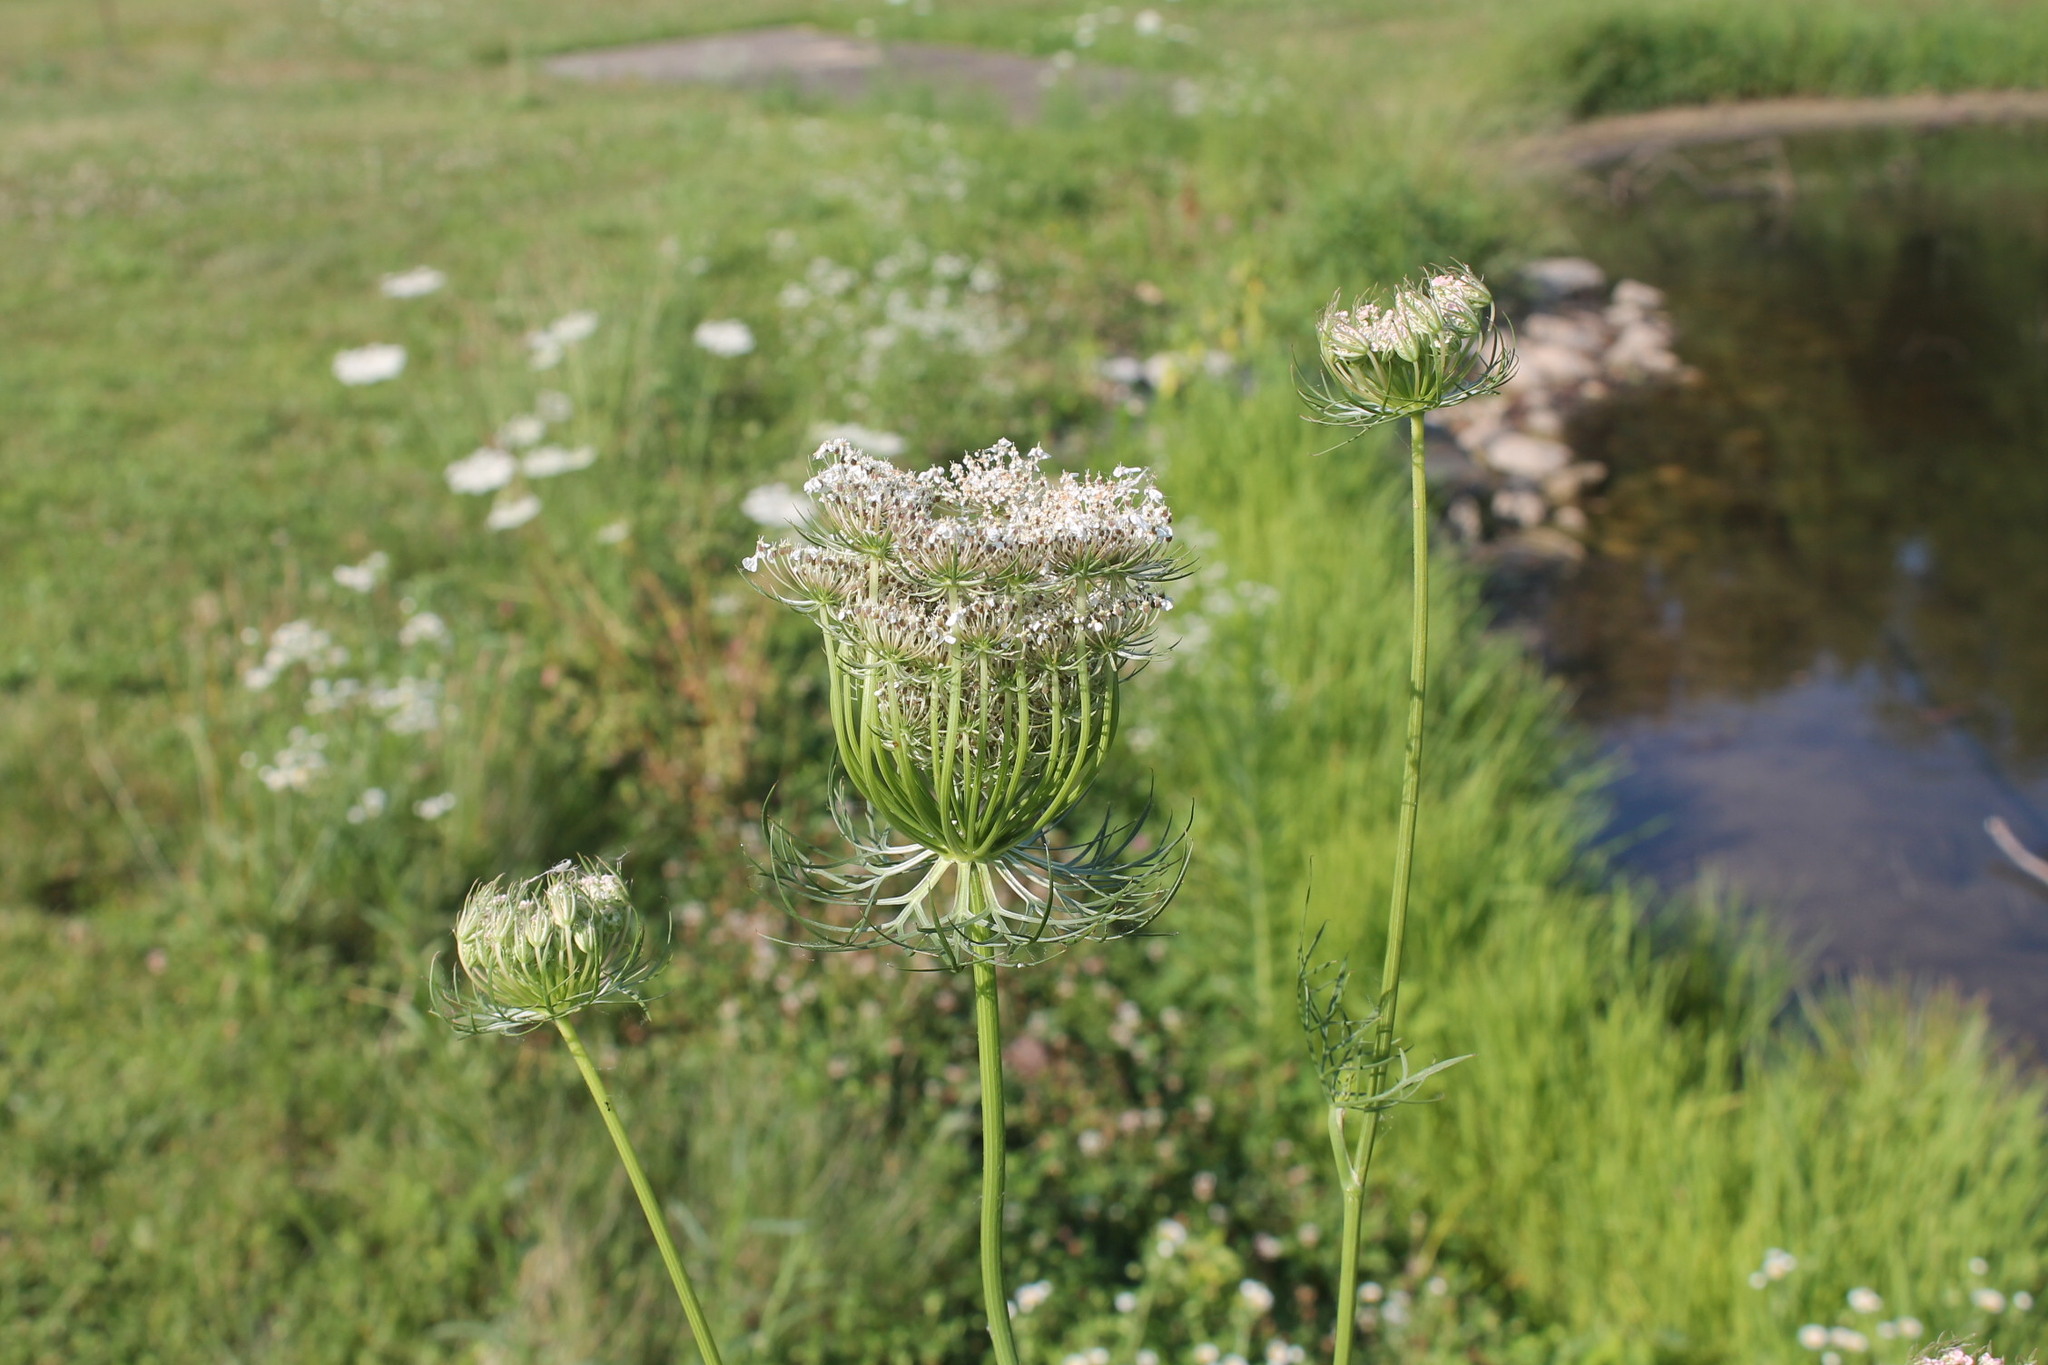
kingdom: Plantae
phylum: Tracheophyta
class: Magnoliopsida
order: Apiales
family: Apiaceae
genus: Daucus
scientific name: Daucus carota
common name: Wild carrot
